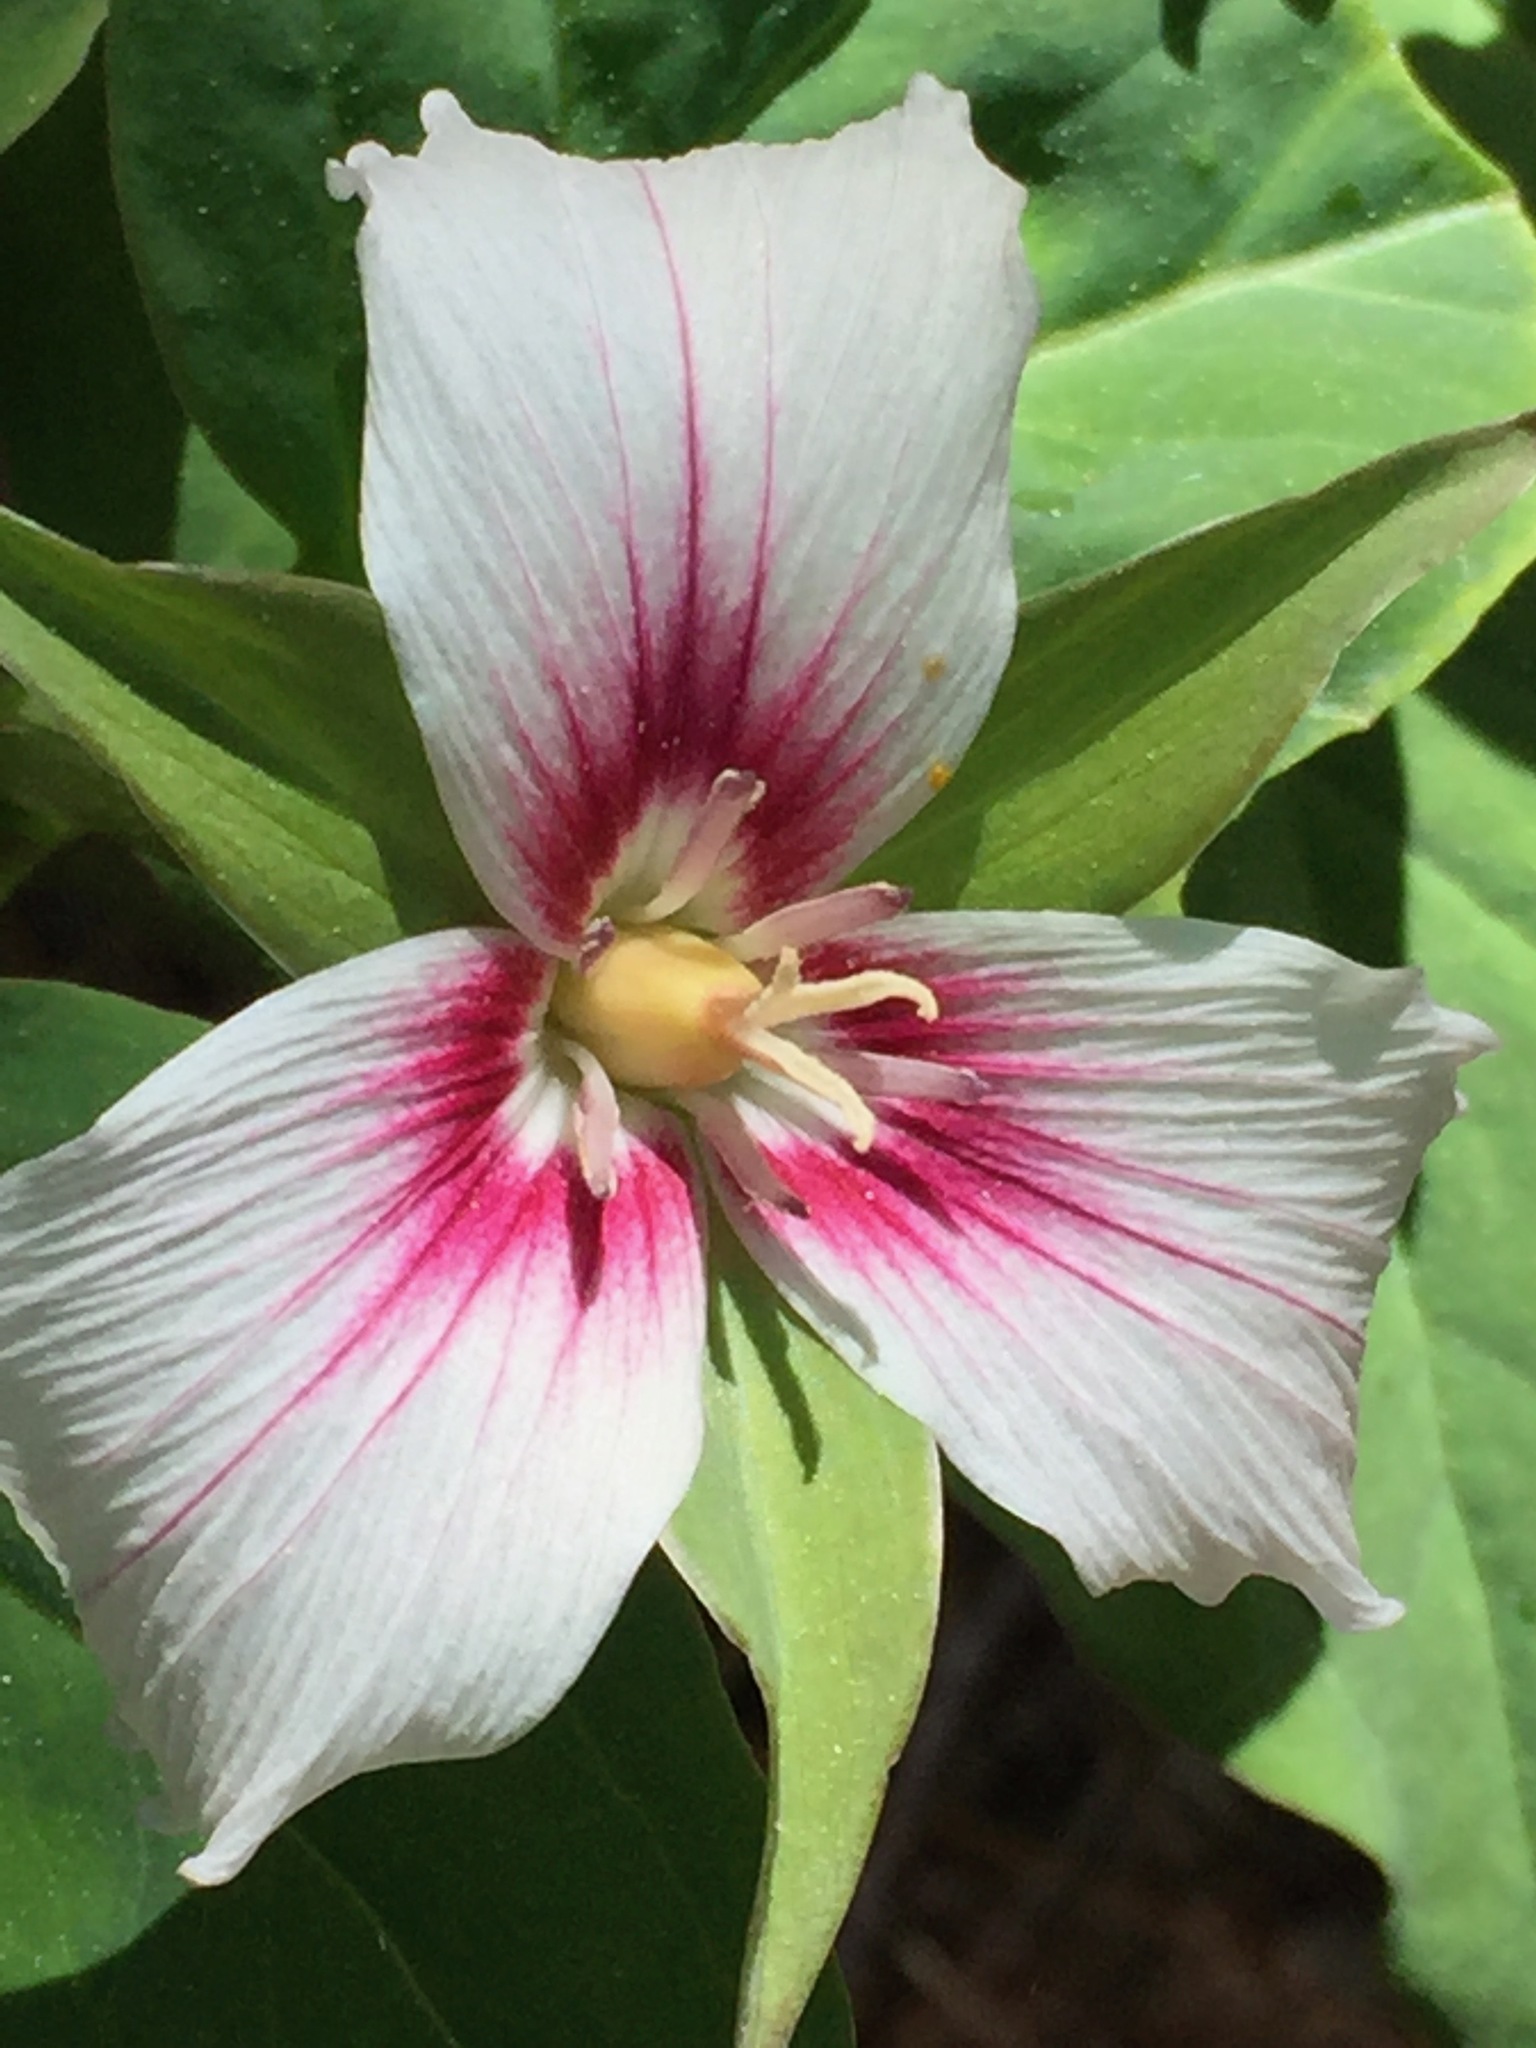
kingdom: Plantae
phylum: Tracheophyta
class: Liliopsida
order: Liliales
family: Melanthiaceae
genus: Trillium
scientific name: Trillium undulatum
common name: Paint trillium
